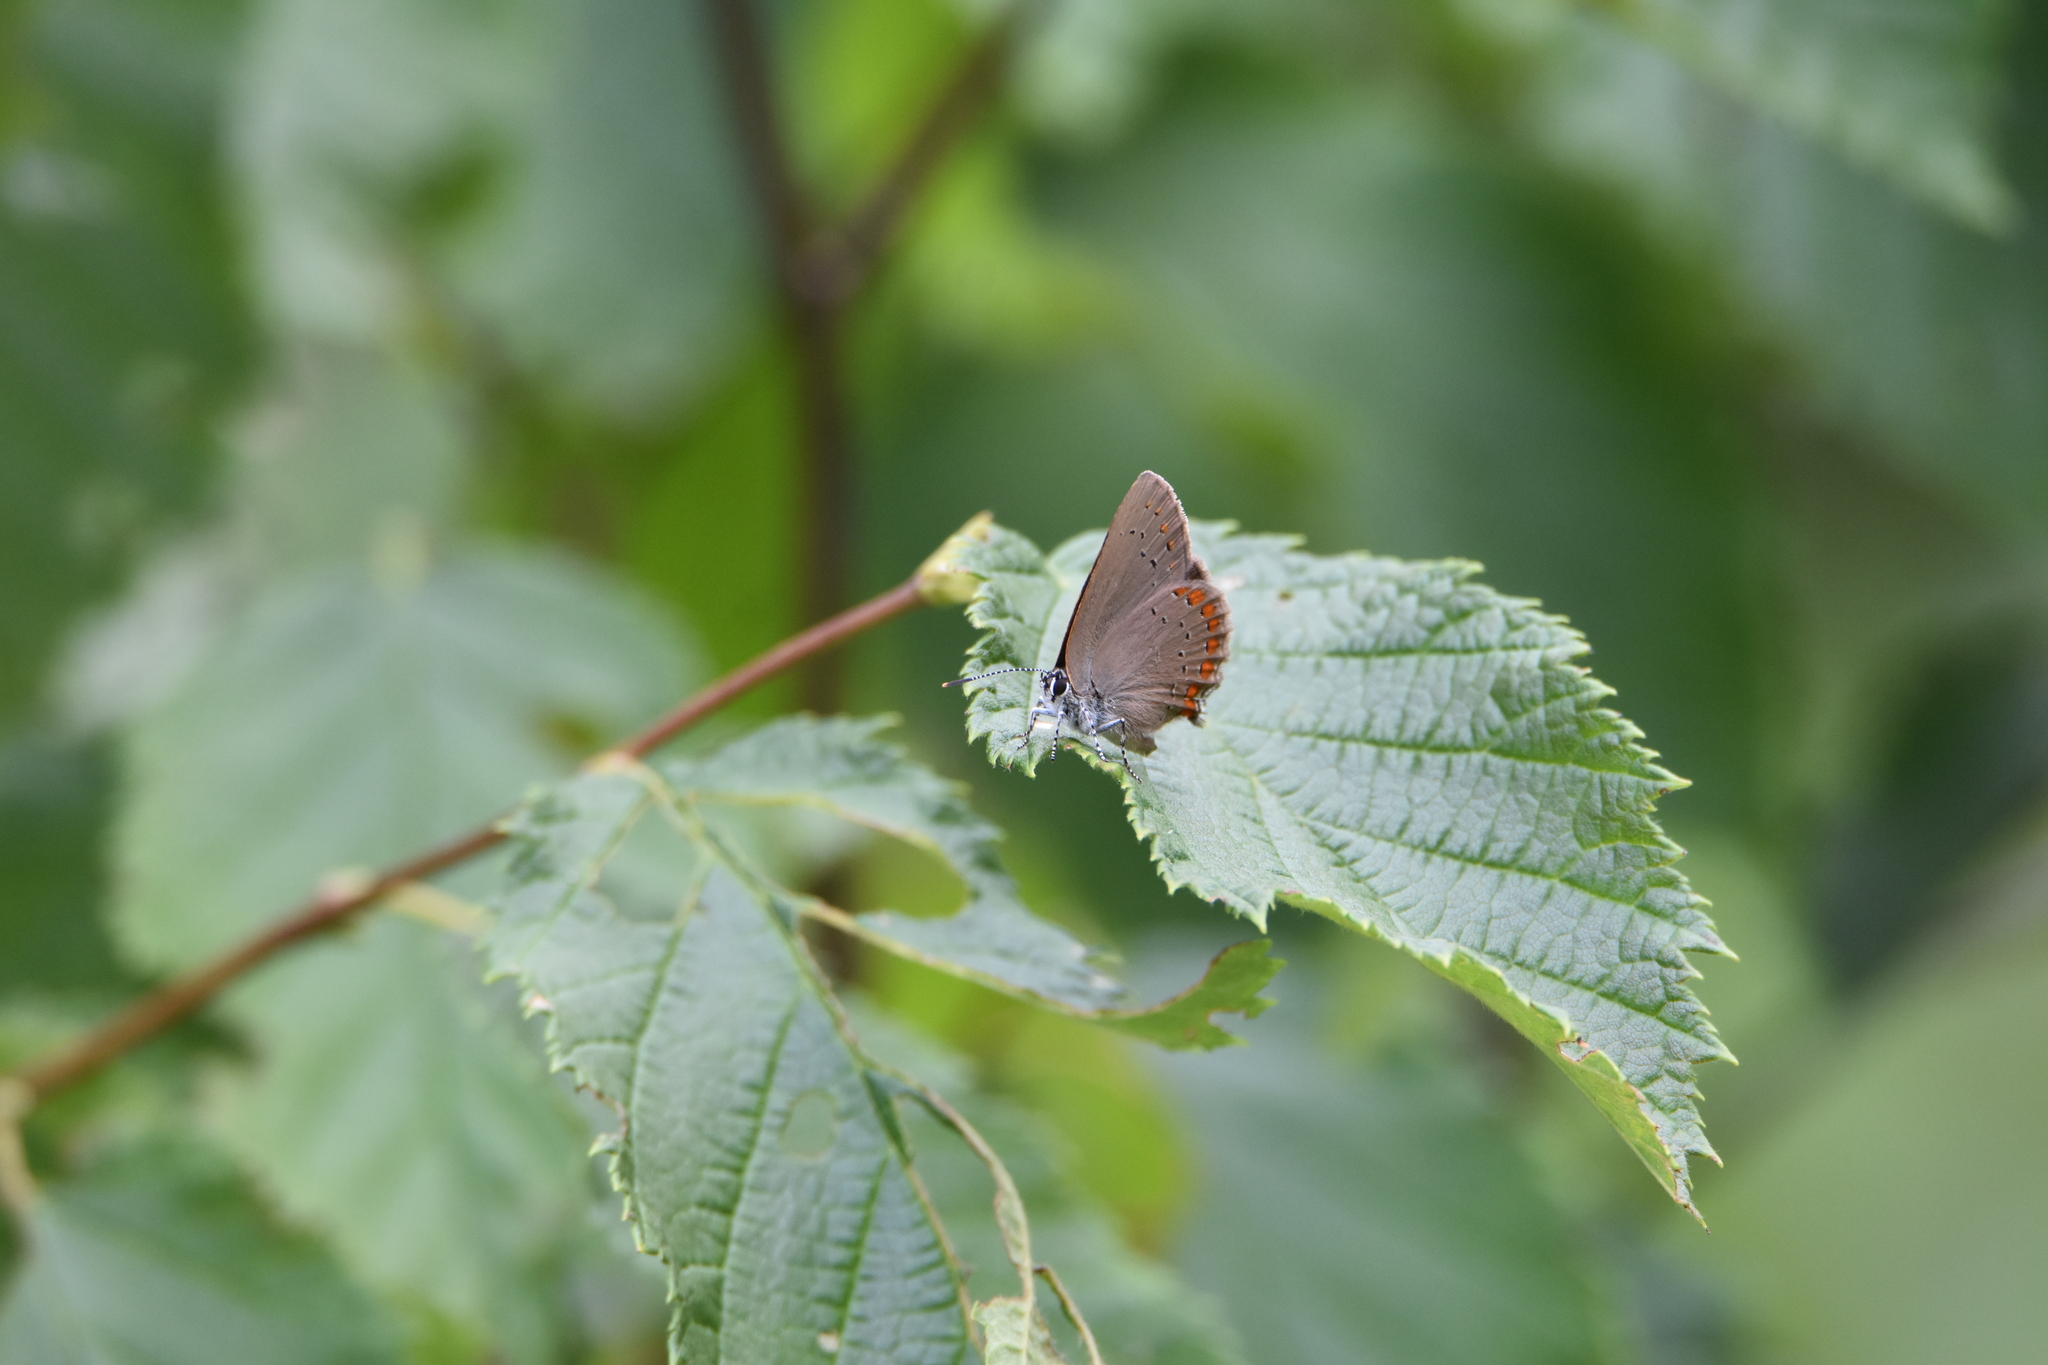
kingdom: Animalia
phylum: Arthropoda
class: Insecta
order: Lepidoptera
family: Lycaenidae
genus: Harkenclenus
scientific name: Harkenclenus titus
